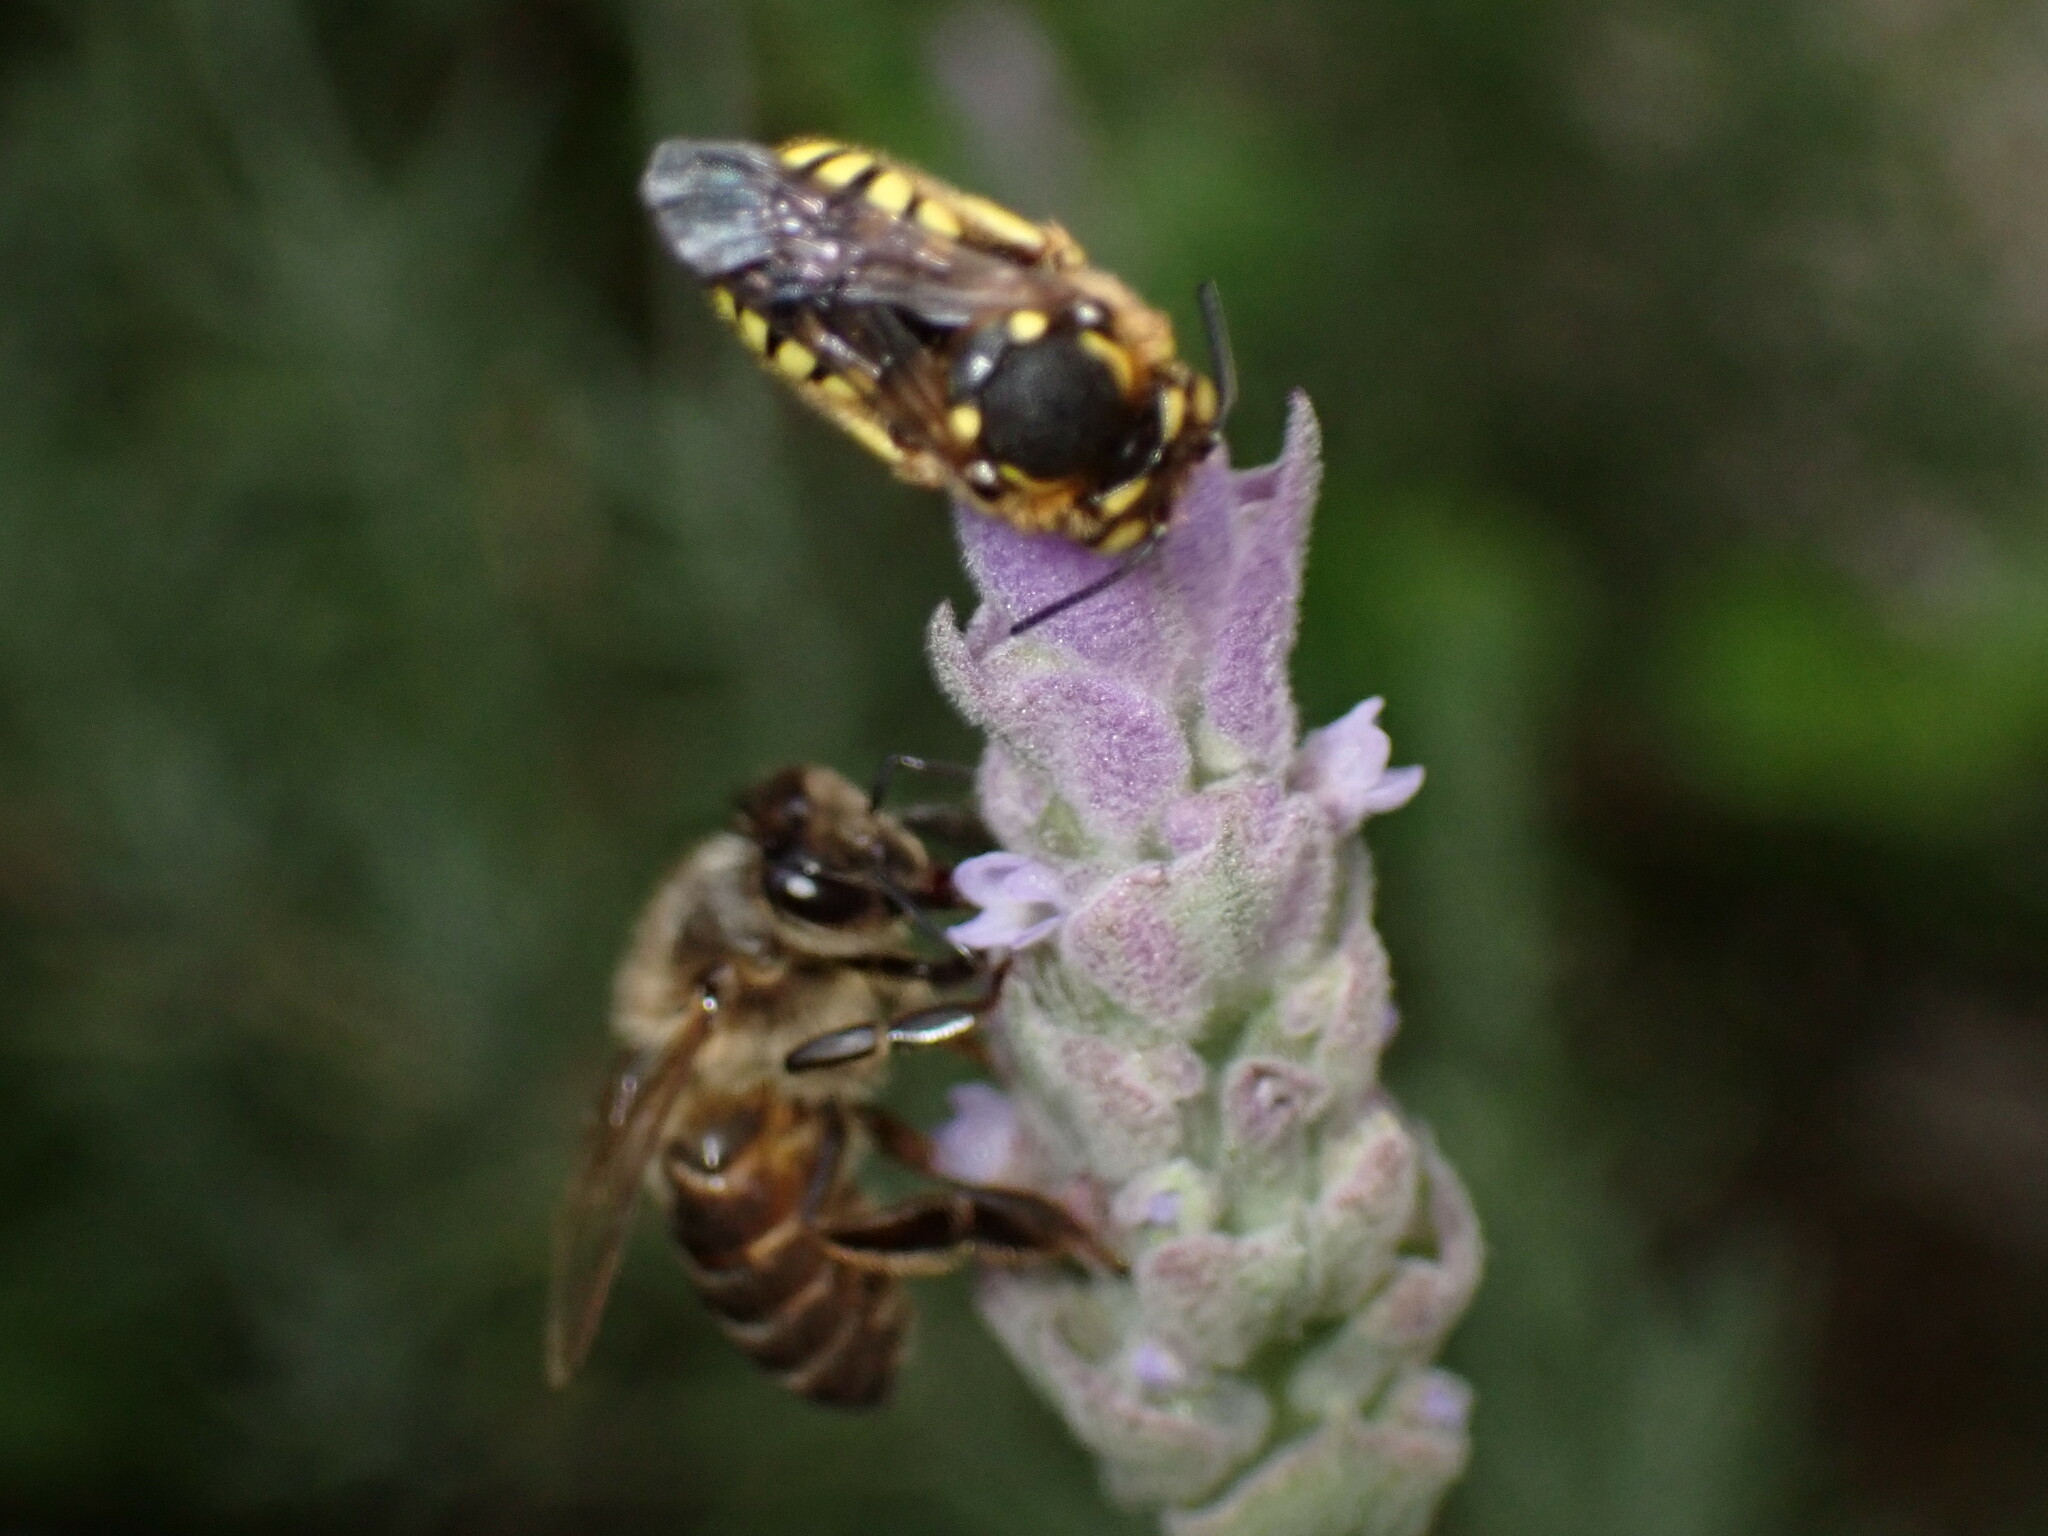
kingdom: Animalia
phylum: Arthropoda
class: Insecta
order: Hymenoptera
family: Megachilidae
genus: Anthidium
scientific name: Anthidium florentinum
